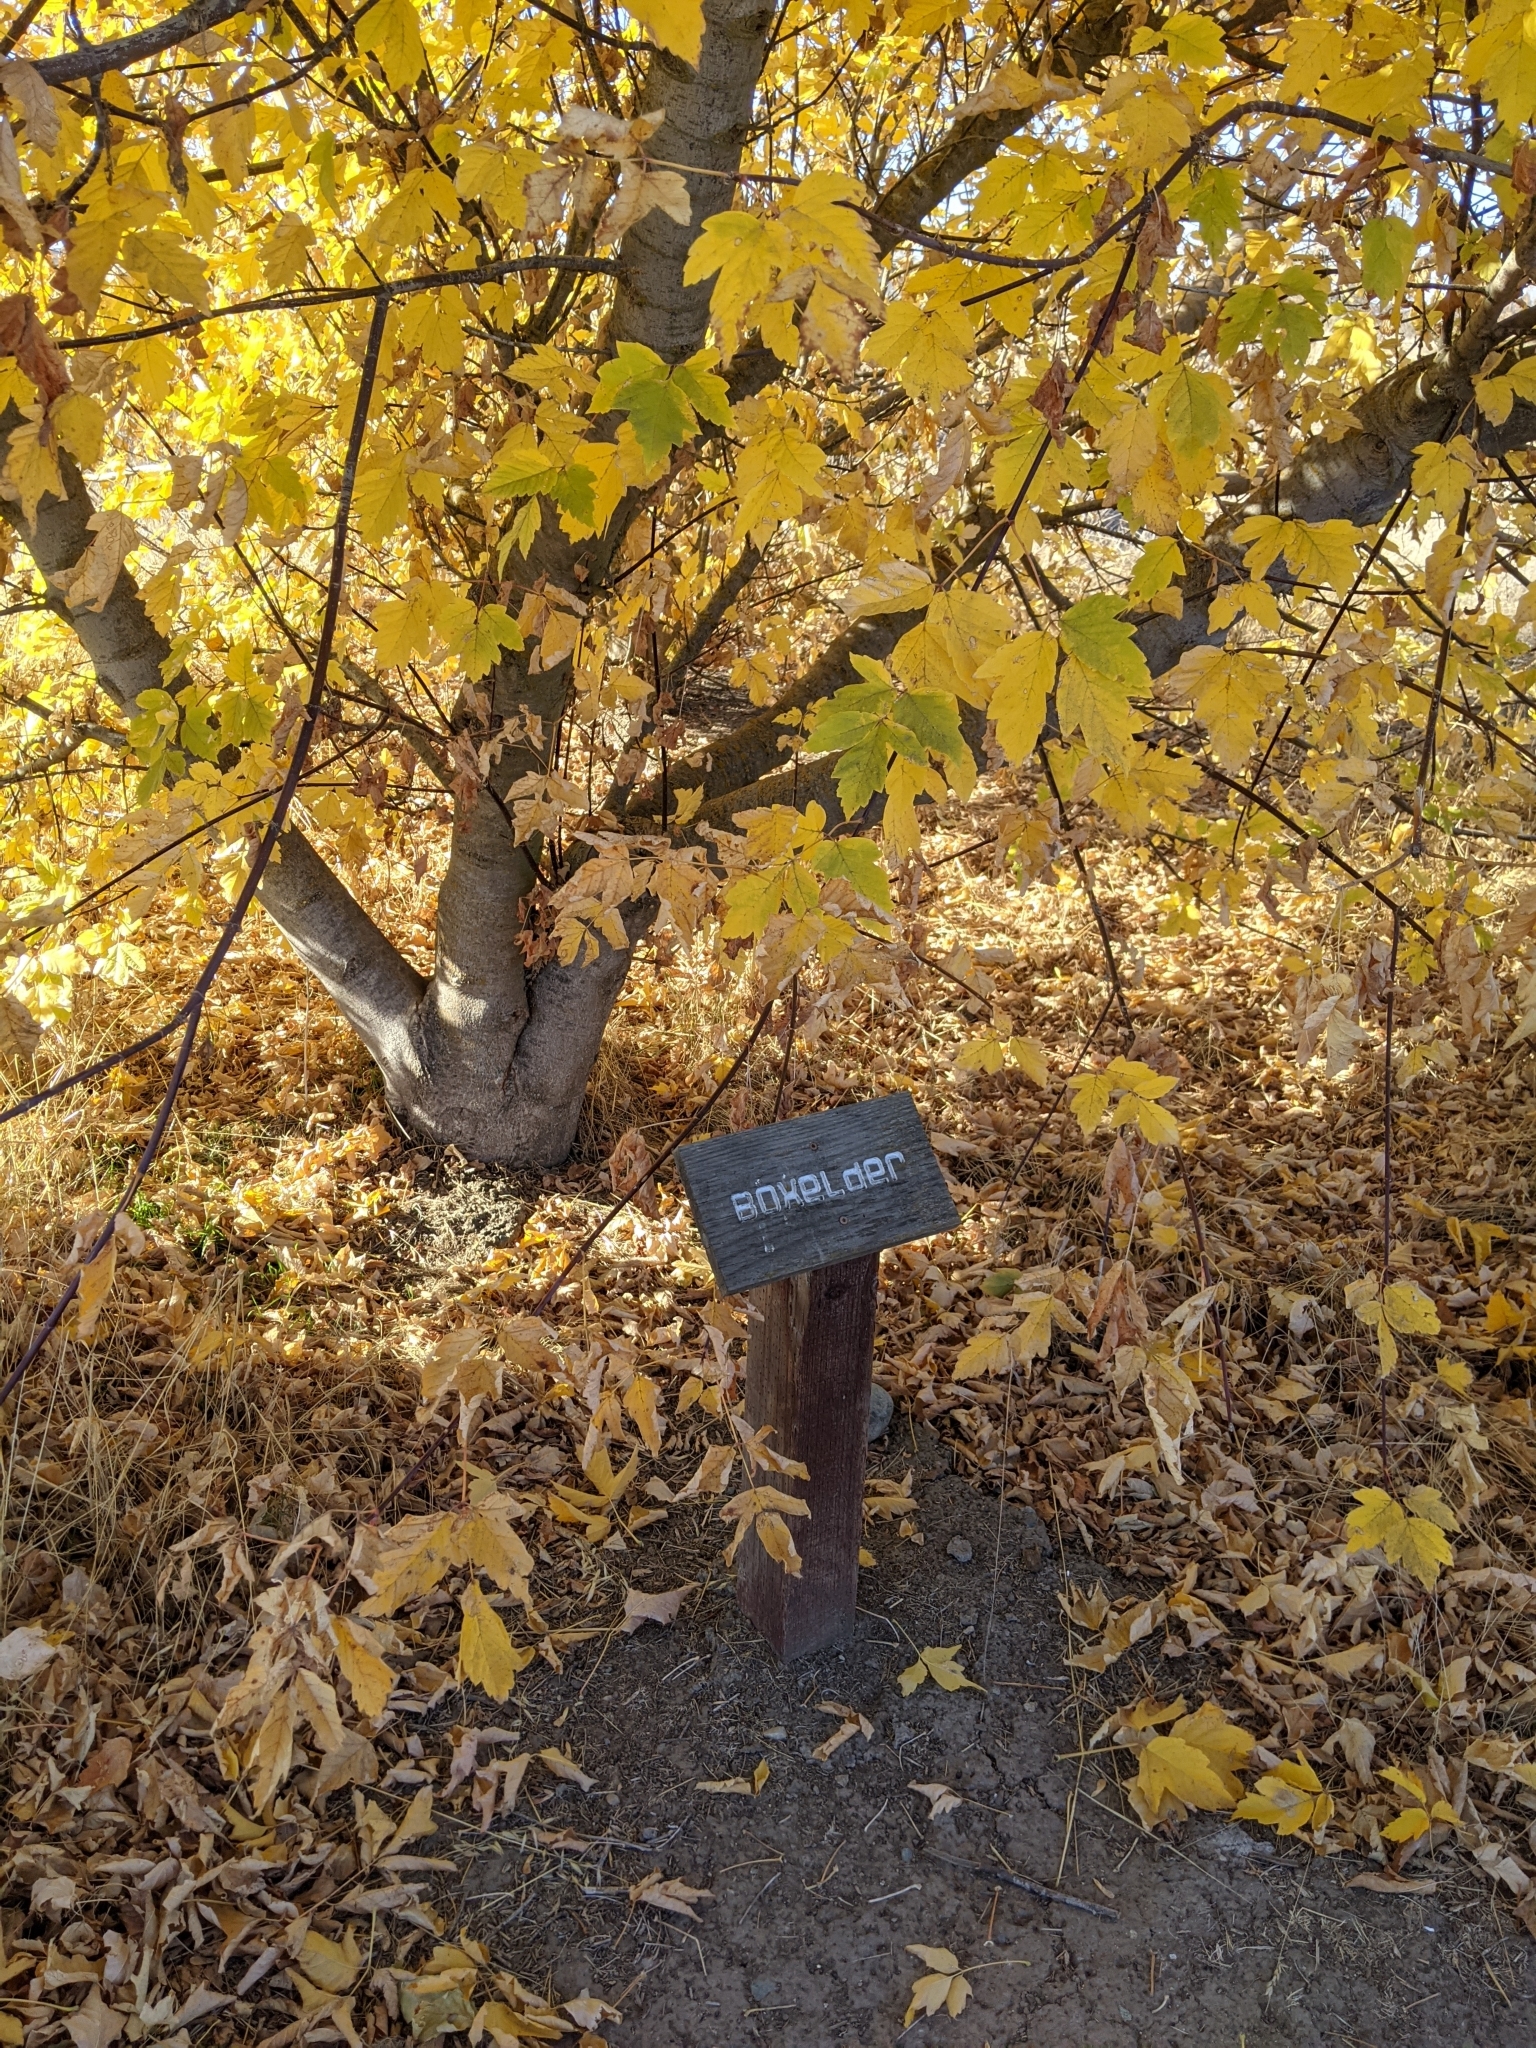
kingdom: Plantae
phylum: Tracheophyta
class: Magnoliopsida
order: Sapindales
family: Sapindaceae
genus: Acer
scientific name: Acer negundo
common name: Ashleaf maple
